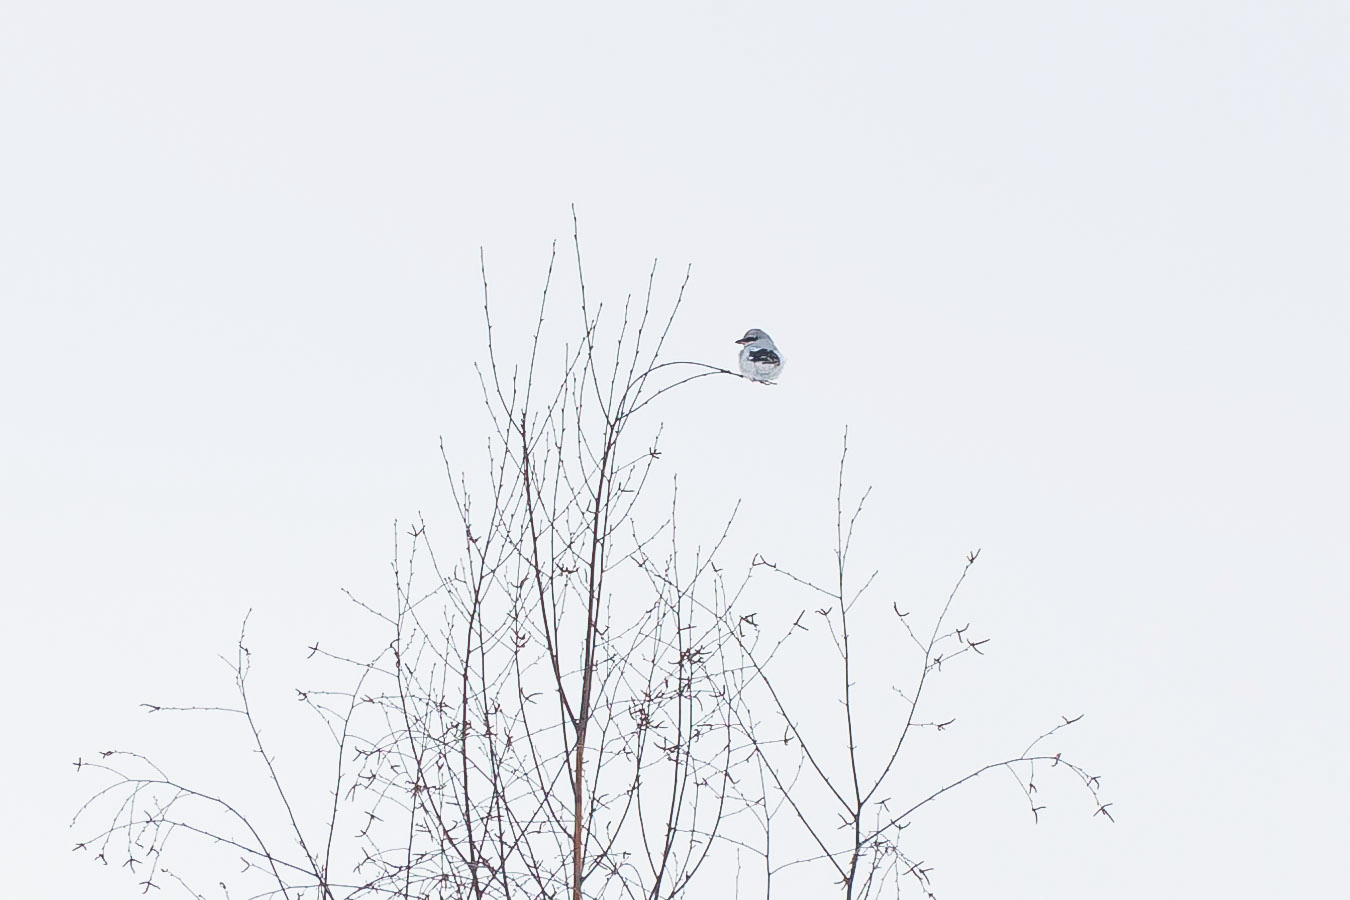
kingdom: Animalia
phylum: Chordata
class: Aves
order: Passeriformes
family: Laniidae
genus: Lanius
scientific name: Lanius excubitor
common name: Great grey shrike
